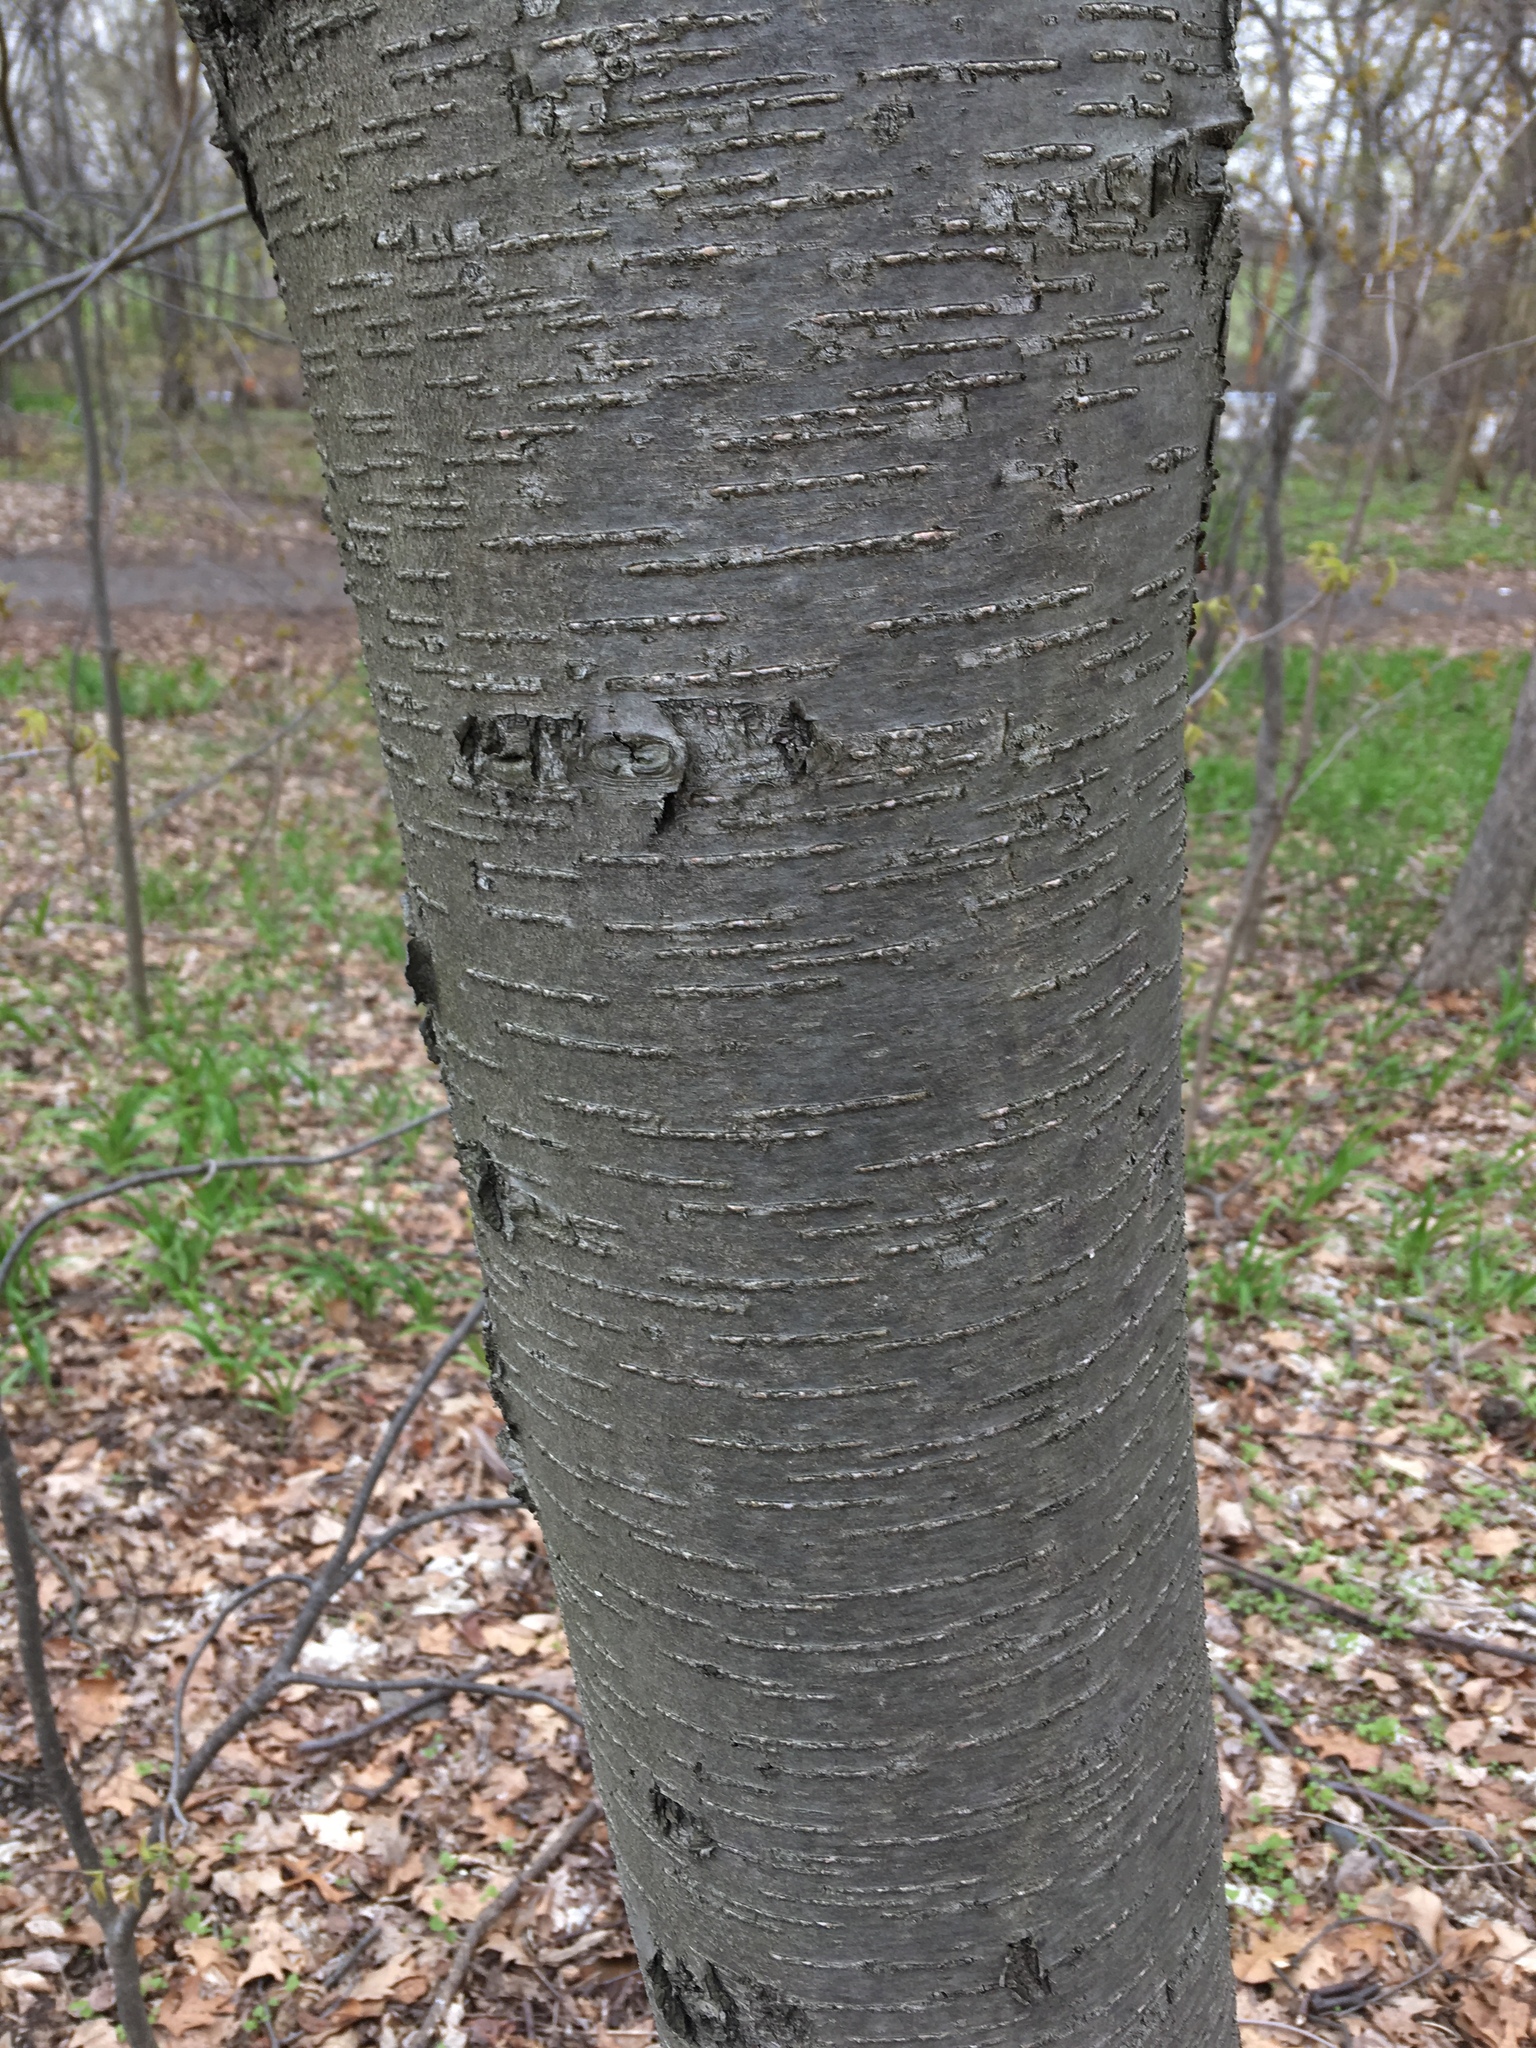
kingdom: Plantae
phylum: Tracheophyta
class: Magnoliopsida
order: Fagales
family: Betulaceae
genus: Betula
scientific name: Betula lenta
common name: Black birch
